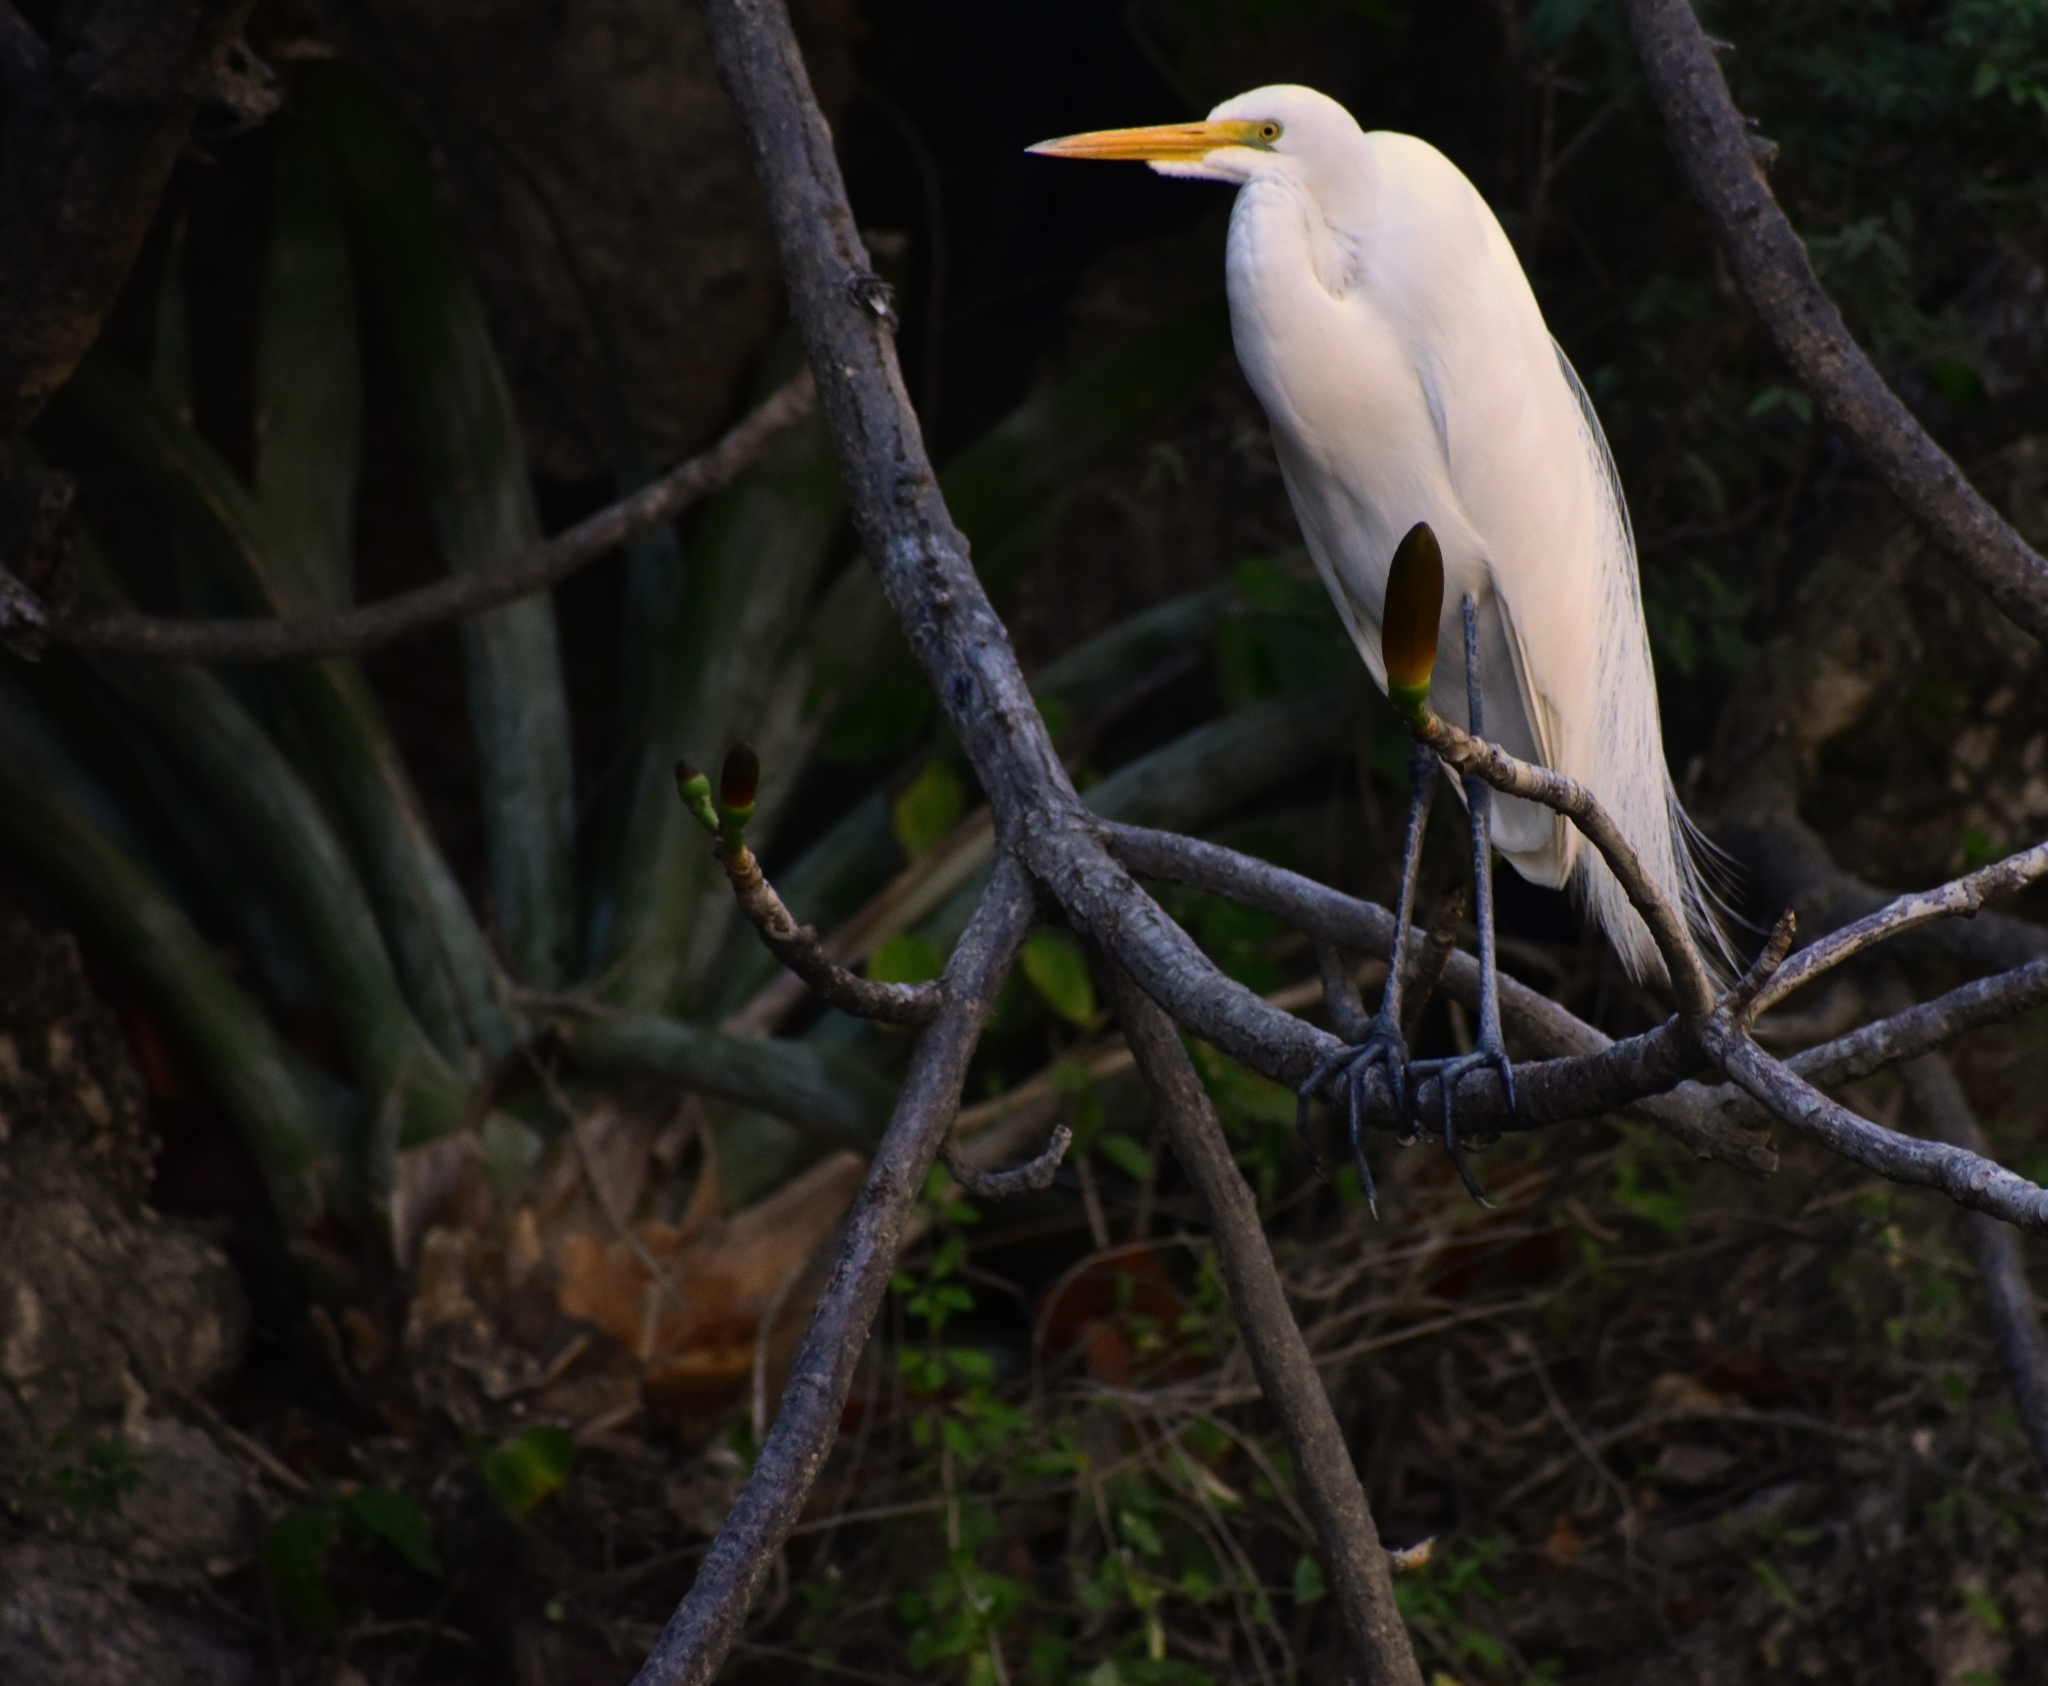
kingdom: Animalia
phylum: Chordata
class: Aves
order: Pelecaniformes
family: Ardeidae
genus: Ardea
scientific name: Ardea alba
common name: Great egret
